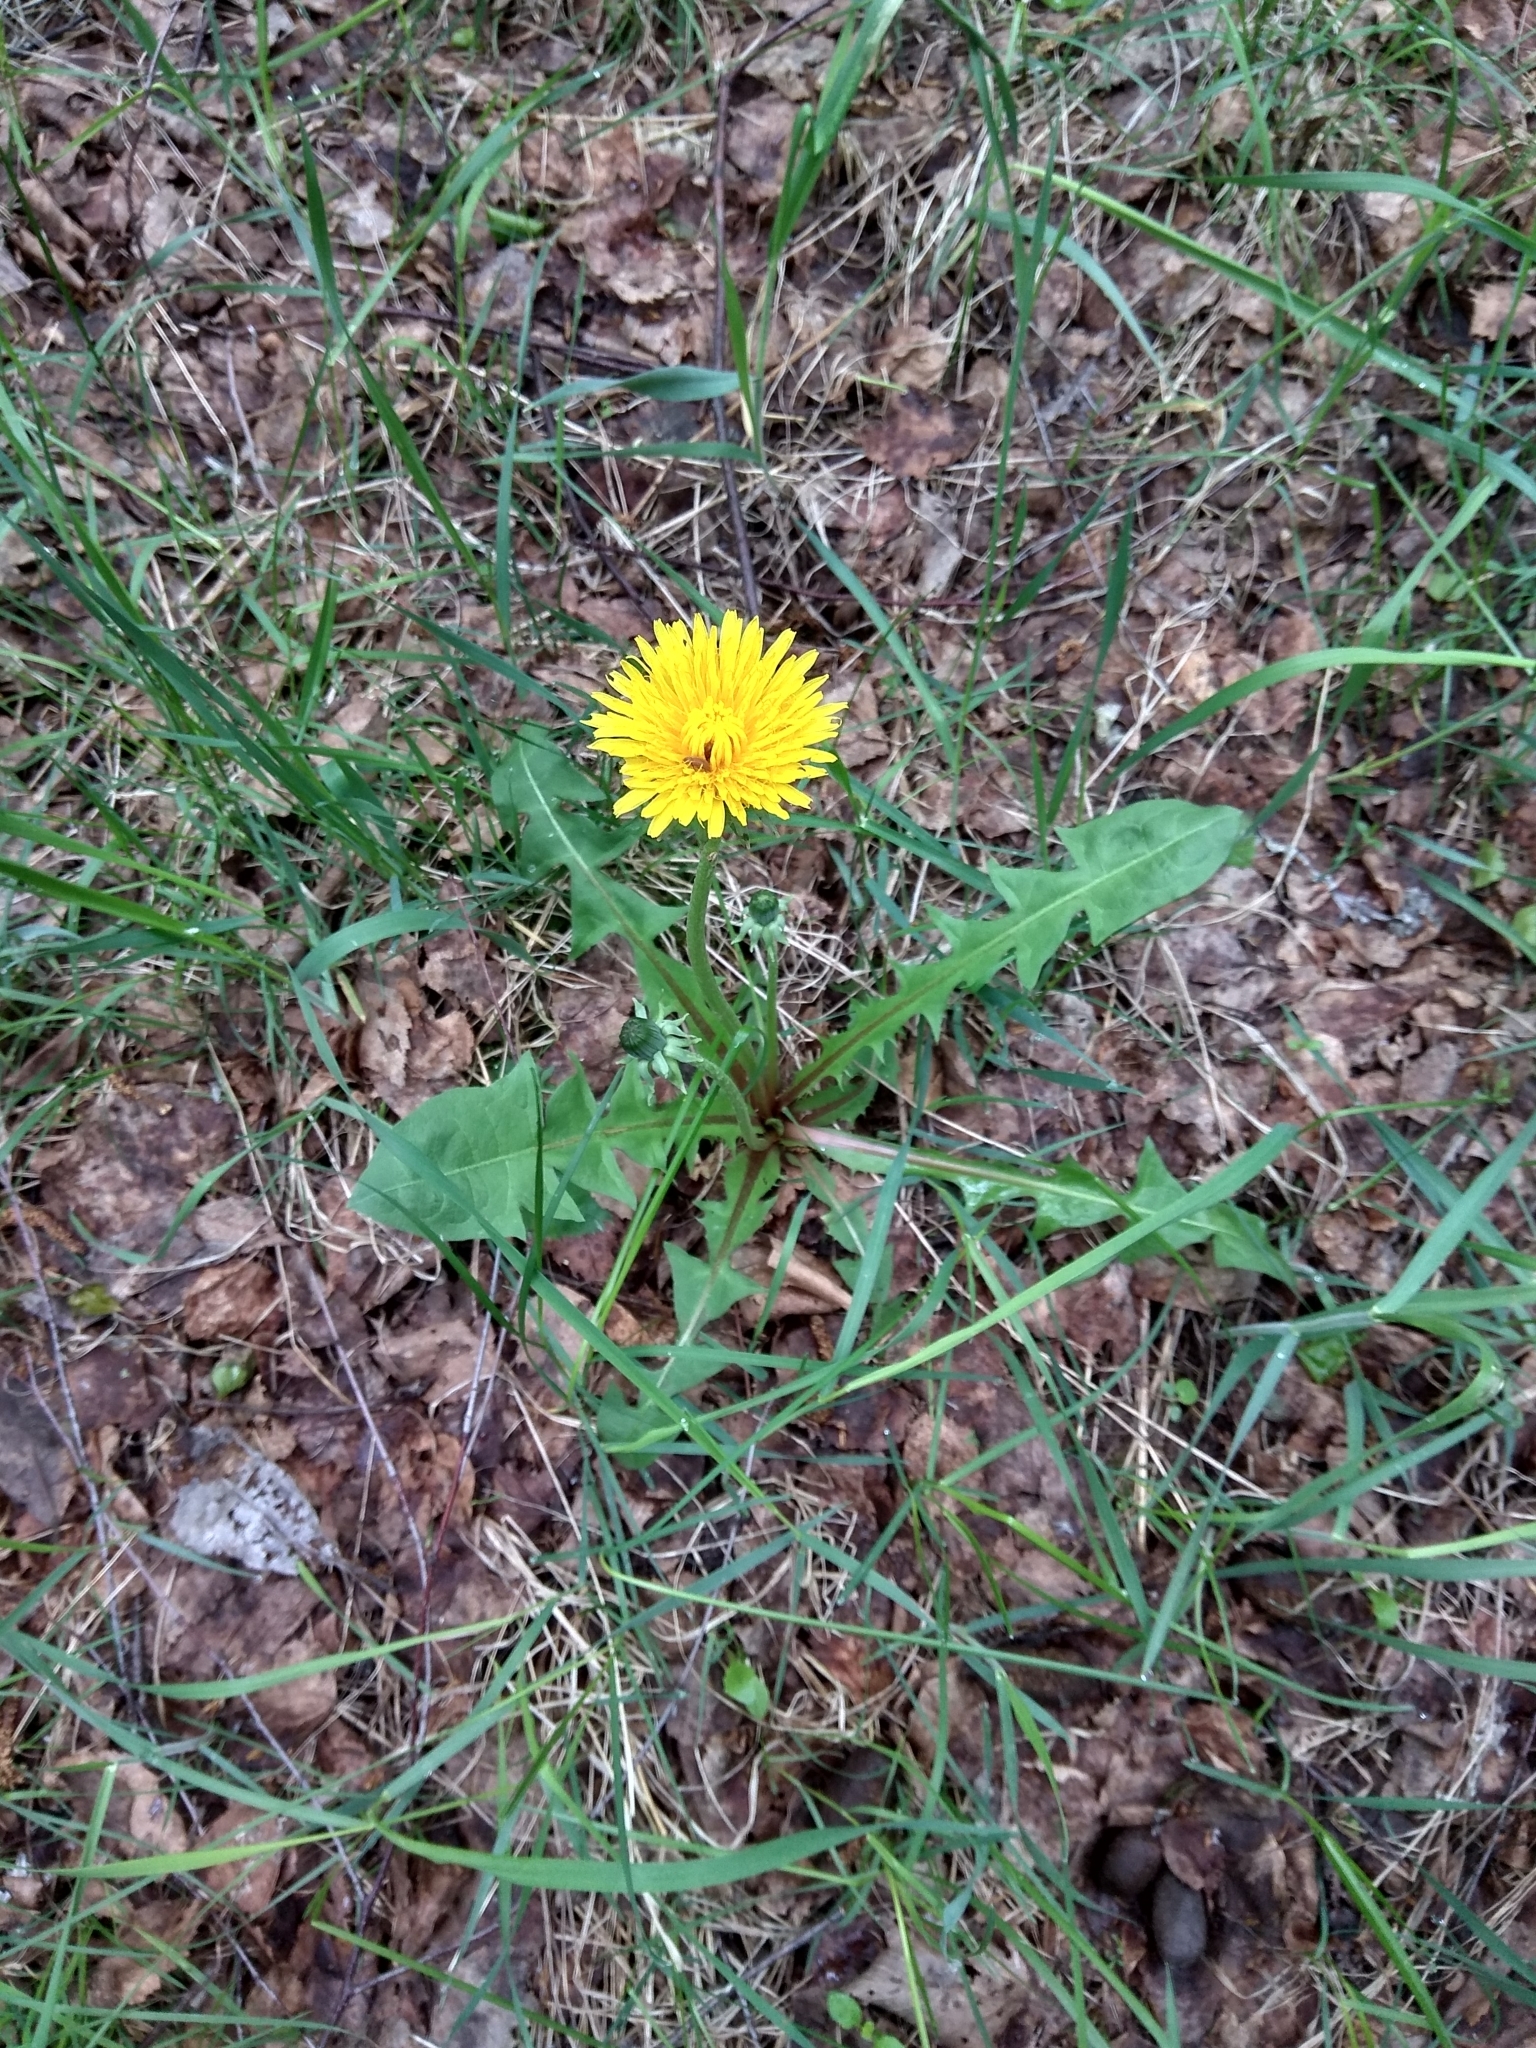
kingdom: Plantae
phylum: Tracheophyta
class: Magnoliopsida
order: Asterales
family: Asteraceae
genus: Taraxacum
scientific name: Taraxacum officinale
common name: Common dandelion
